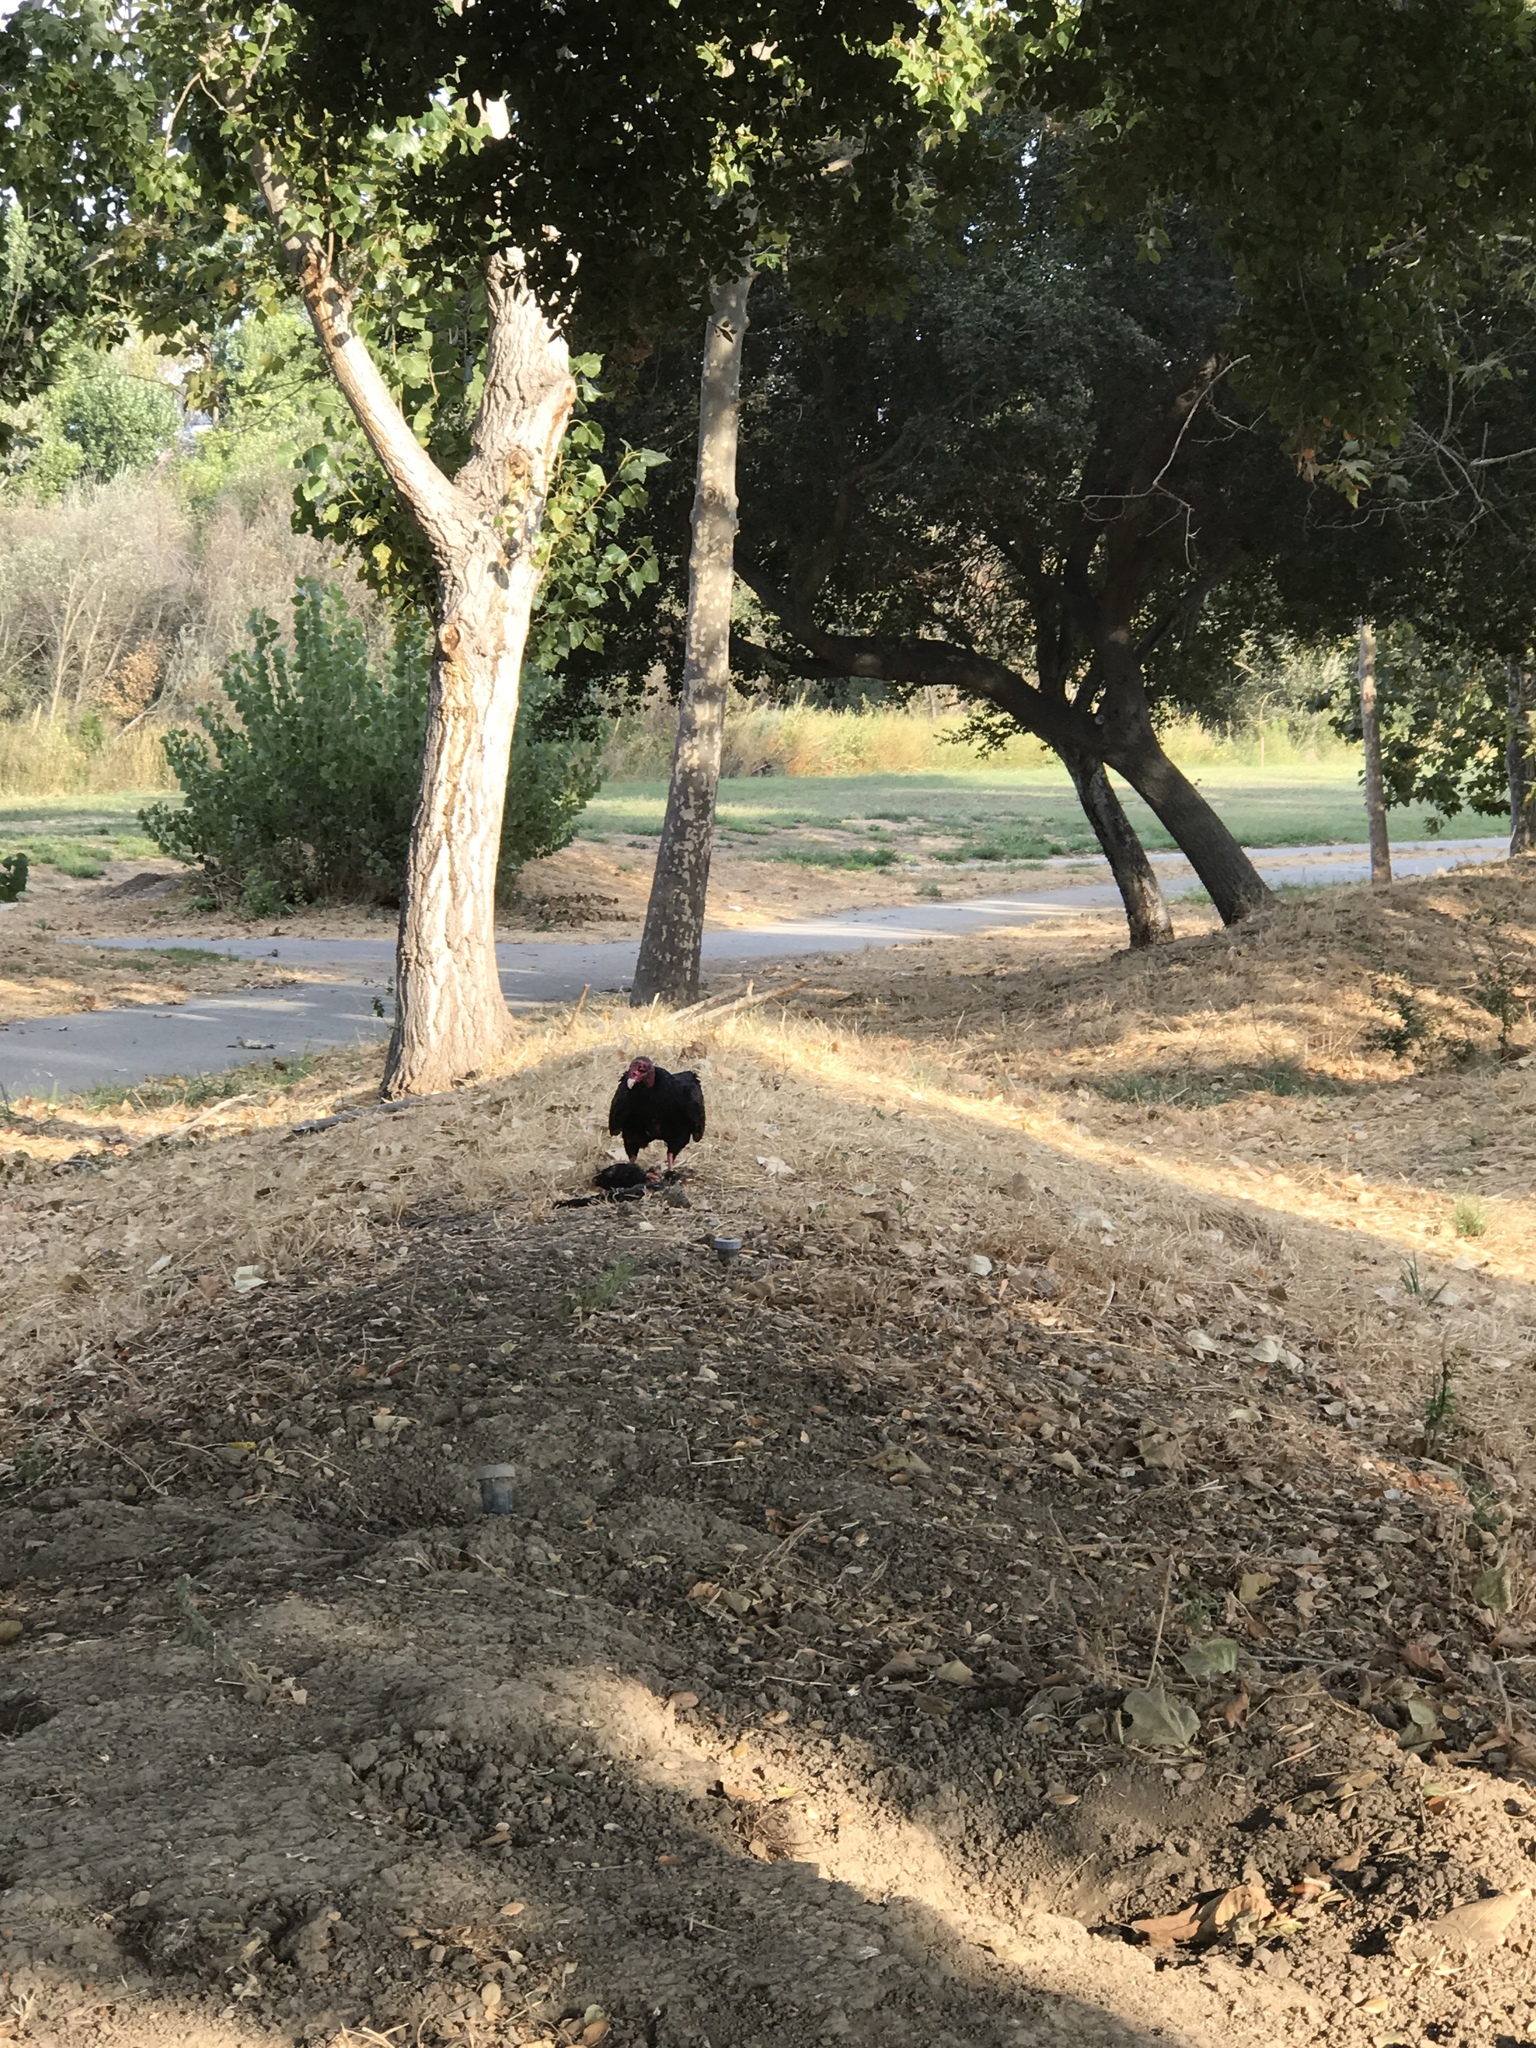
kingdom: Animalia
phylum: Chordata
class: Aves
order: Accipitriformes
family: Cathartidae
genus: Cathartes
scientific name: Cathartes aura
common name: Turkey vulture
